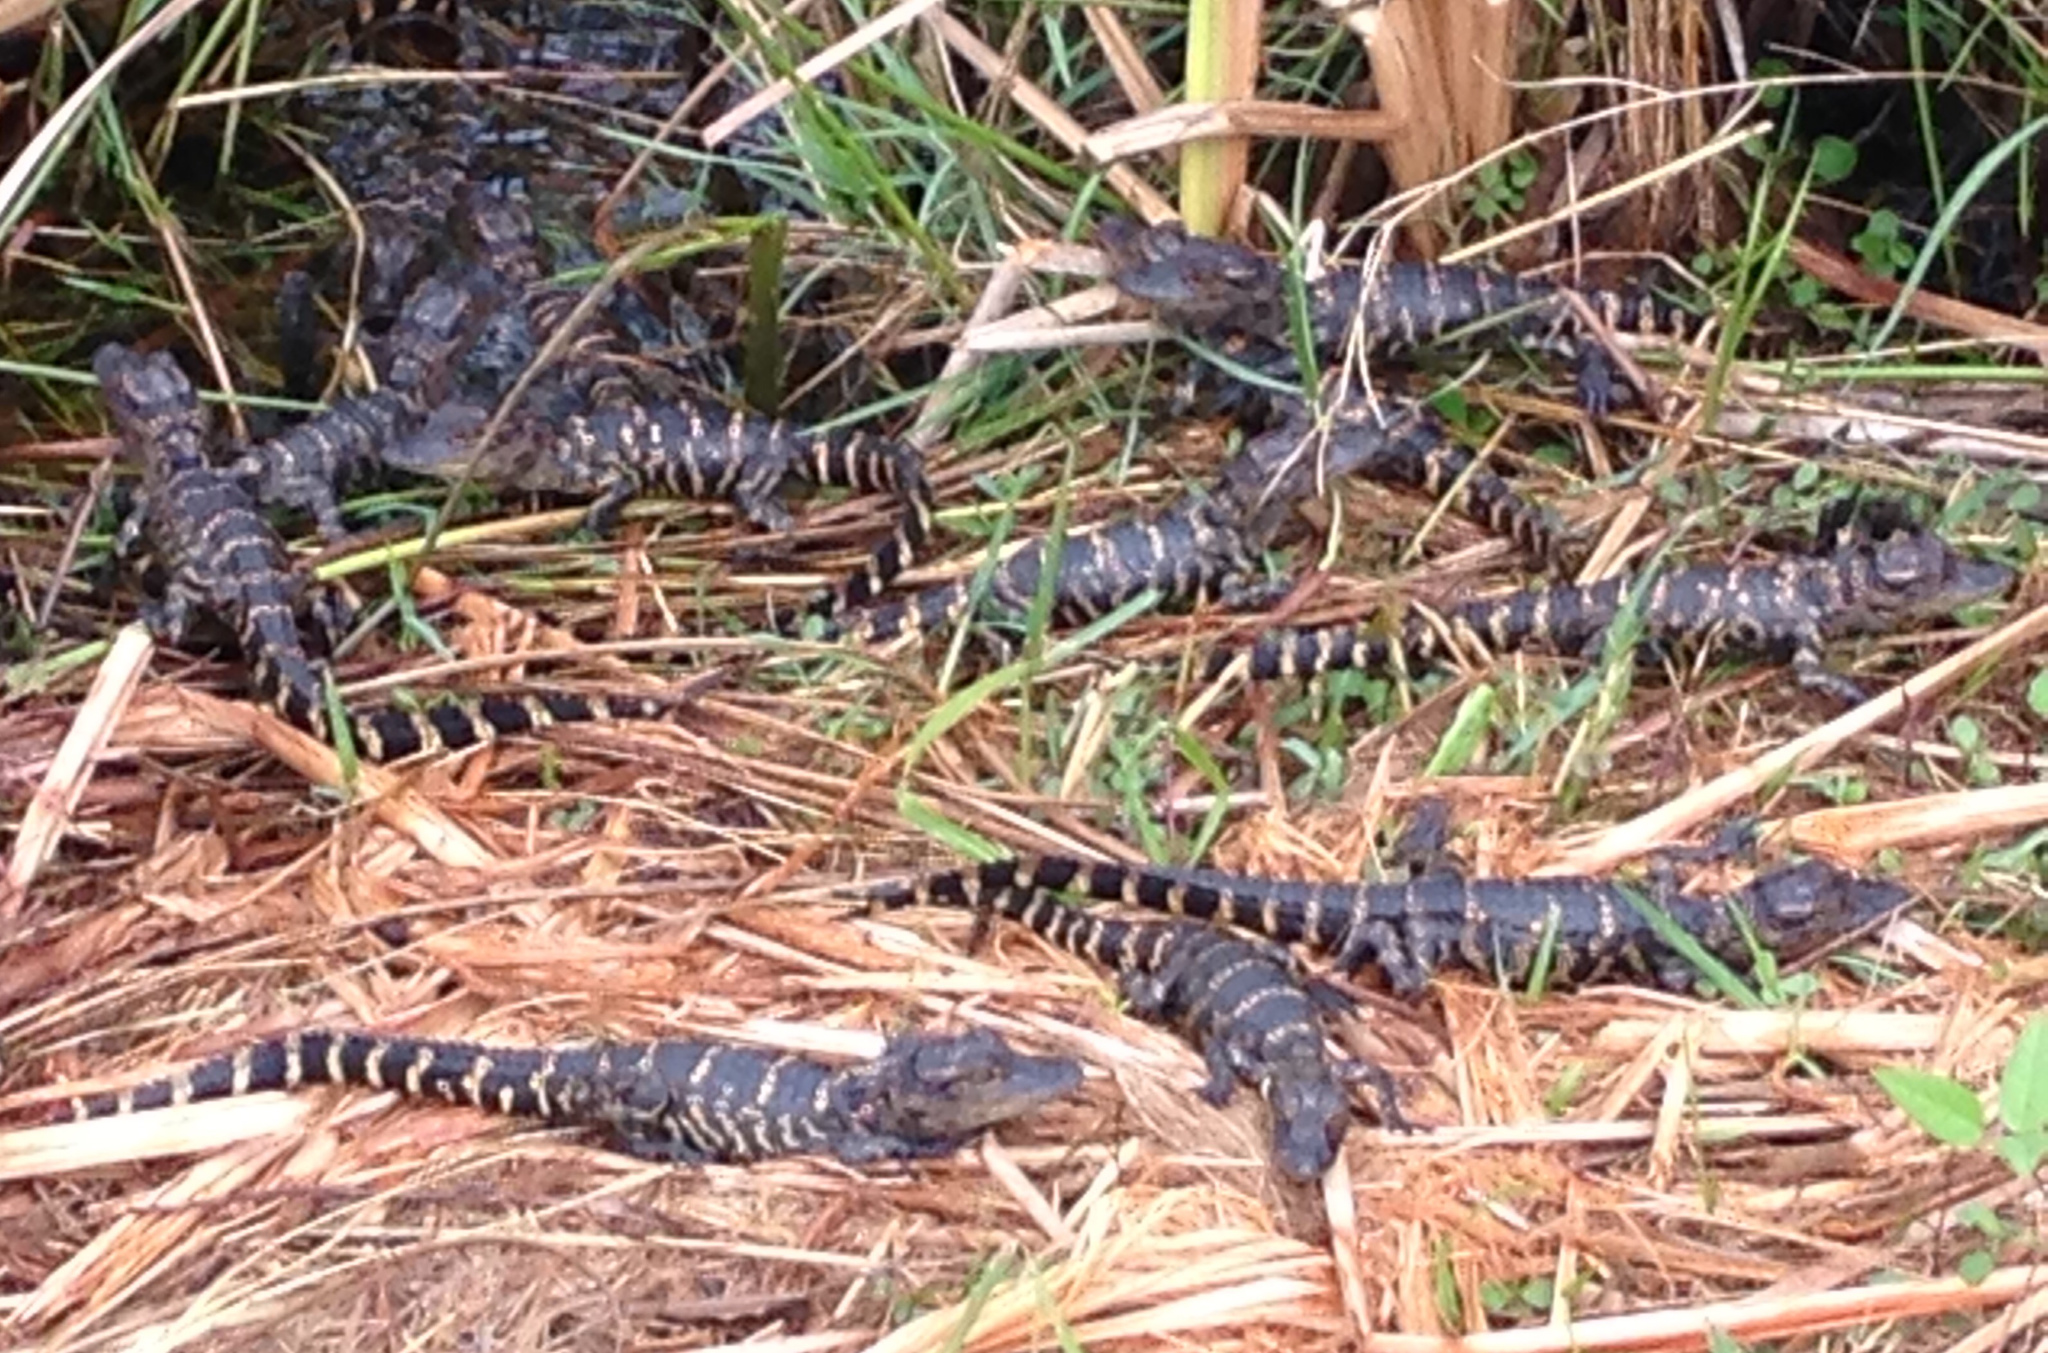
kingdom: Animalia
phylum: Chordata
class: Crocodylia
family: Alligatoridae
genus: Alligator
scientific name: Alligator mississippiensis
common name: American alligator
